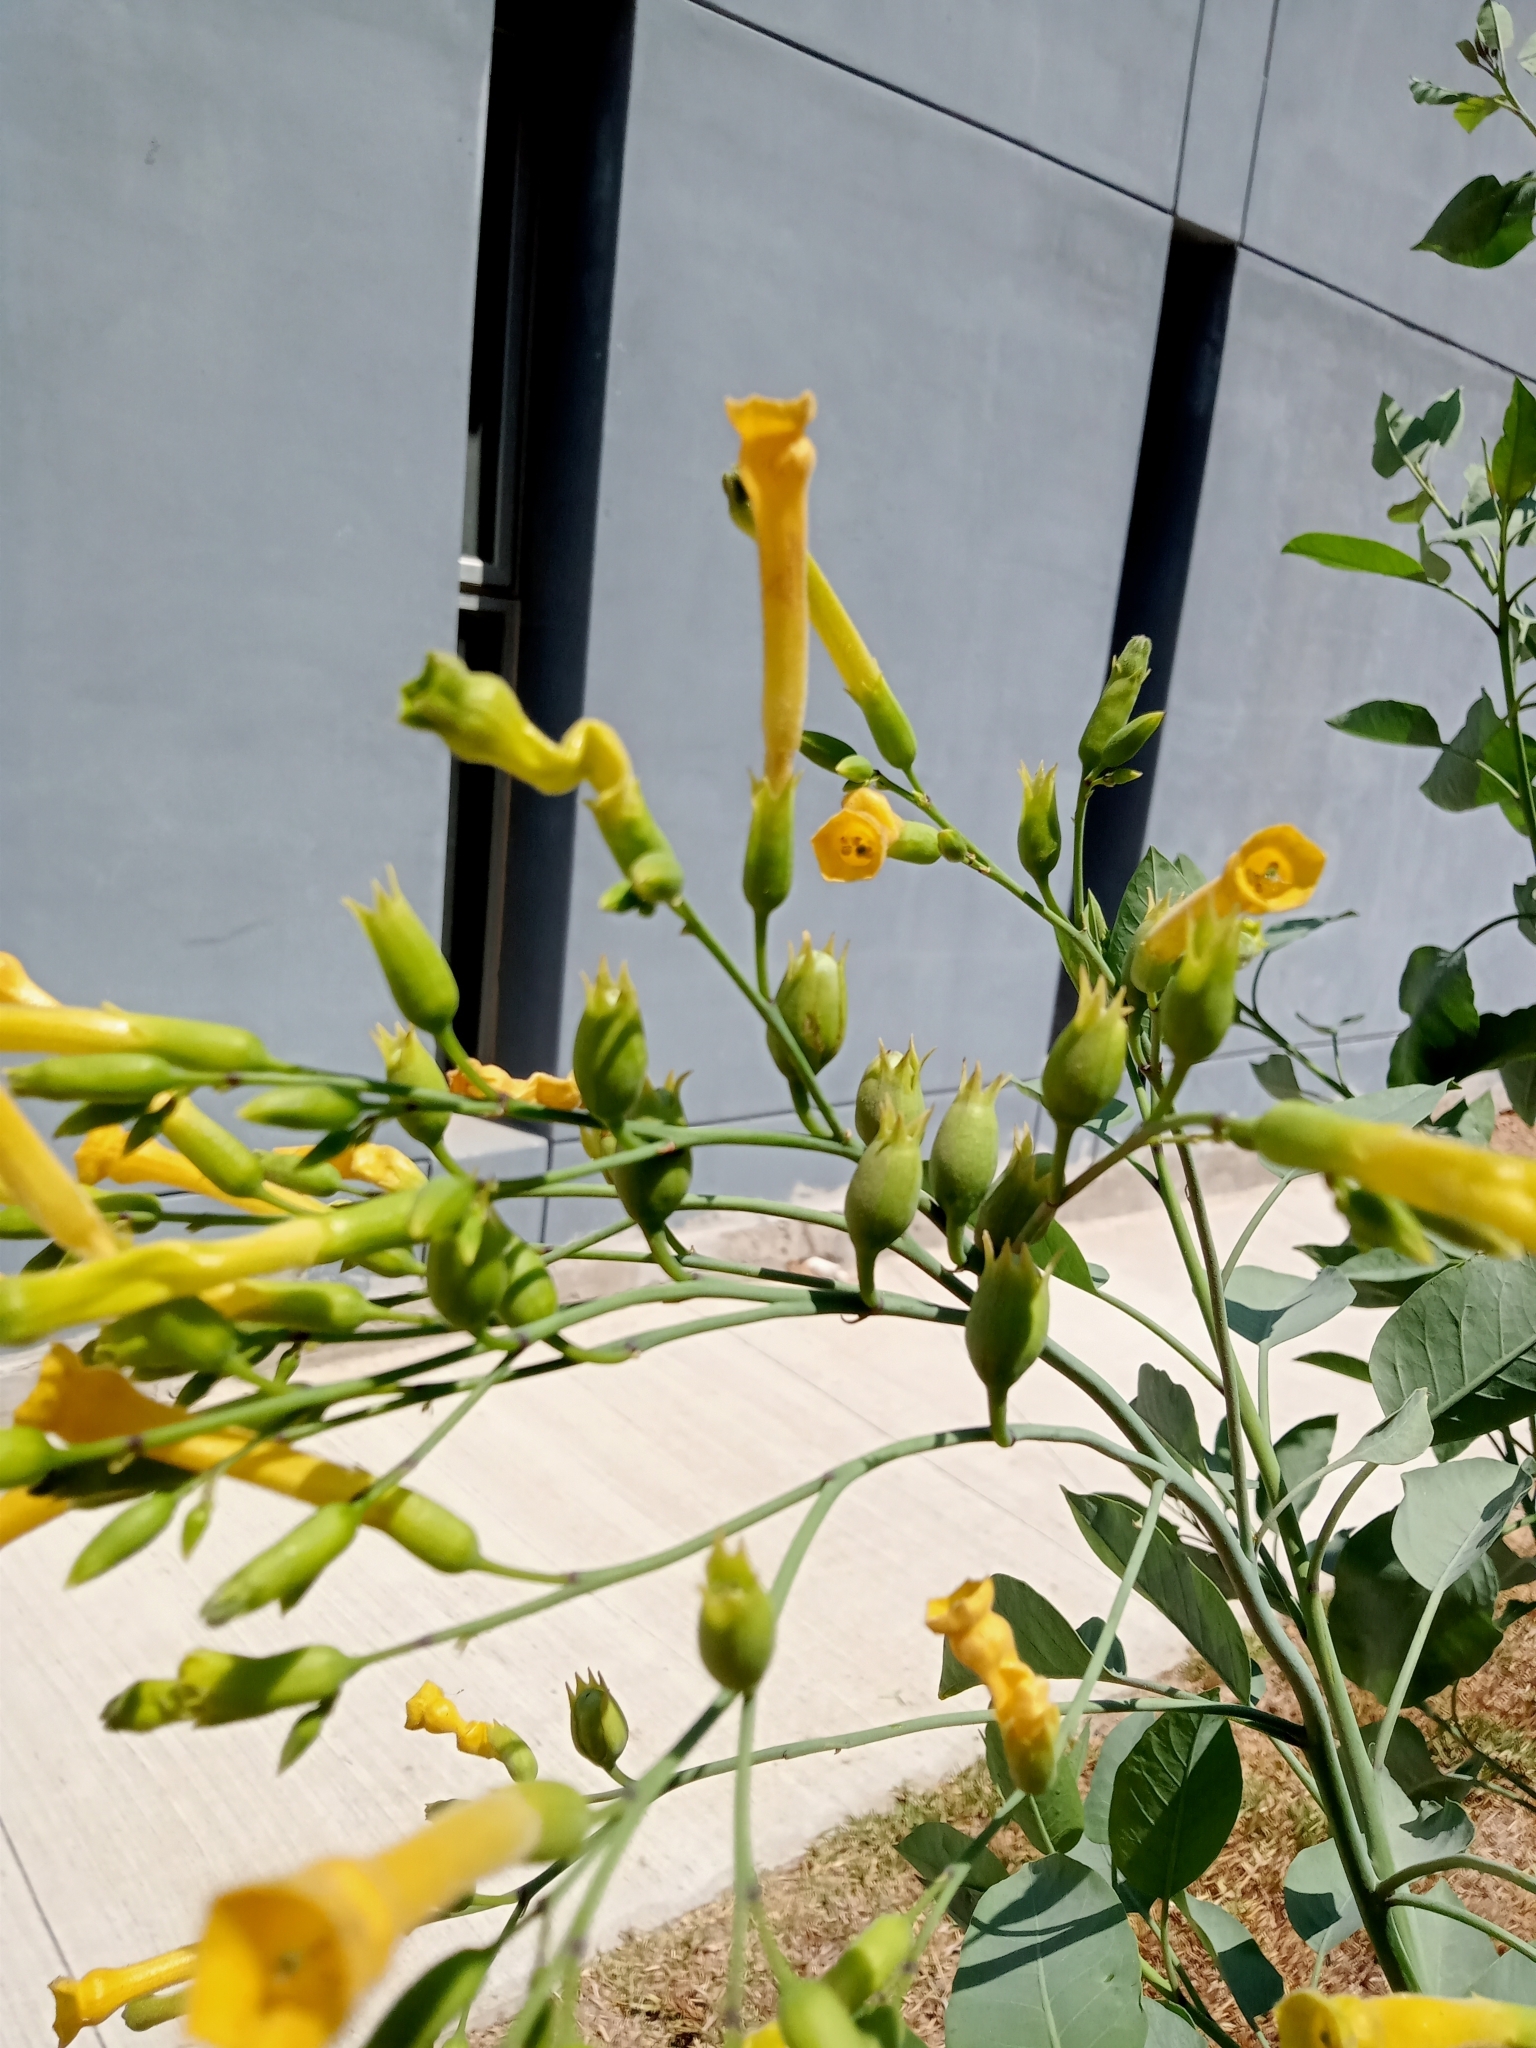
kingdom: Plantae
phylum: Tracheophyta
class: Magnoliopsida
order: Solanales
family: Solanaceae
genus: Nicotiana
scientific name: Nicotiana glauca
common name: Tree tobacco
